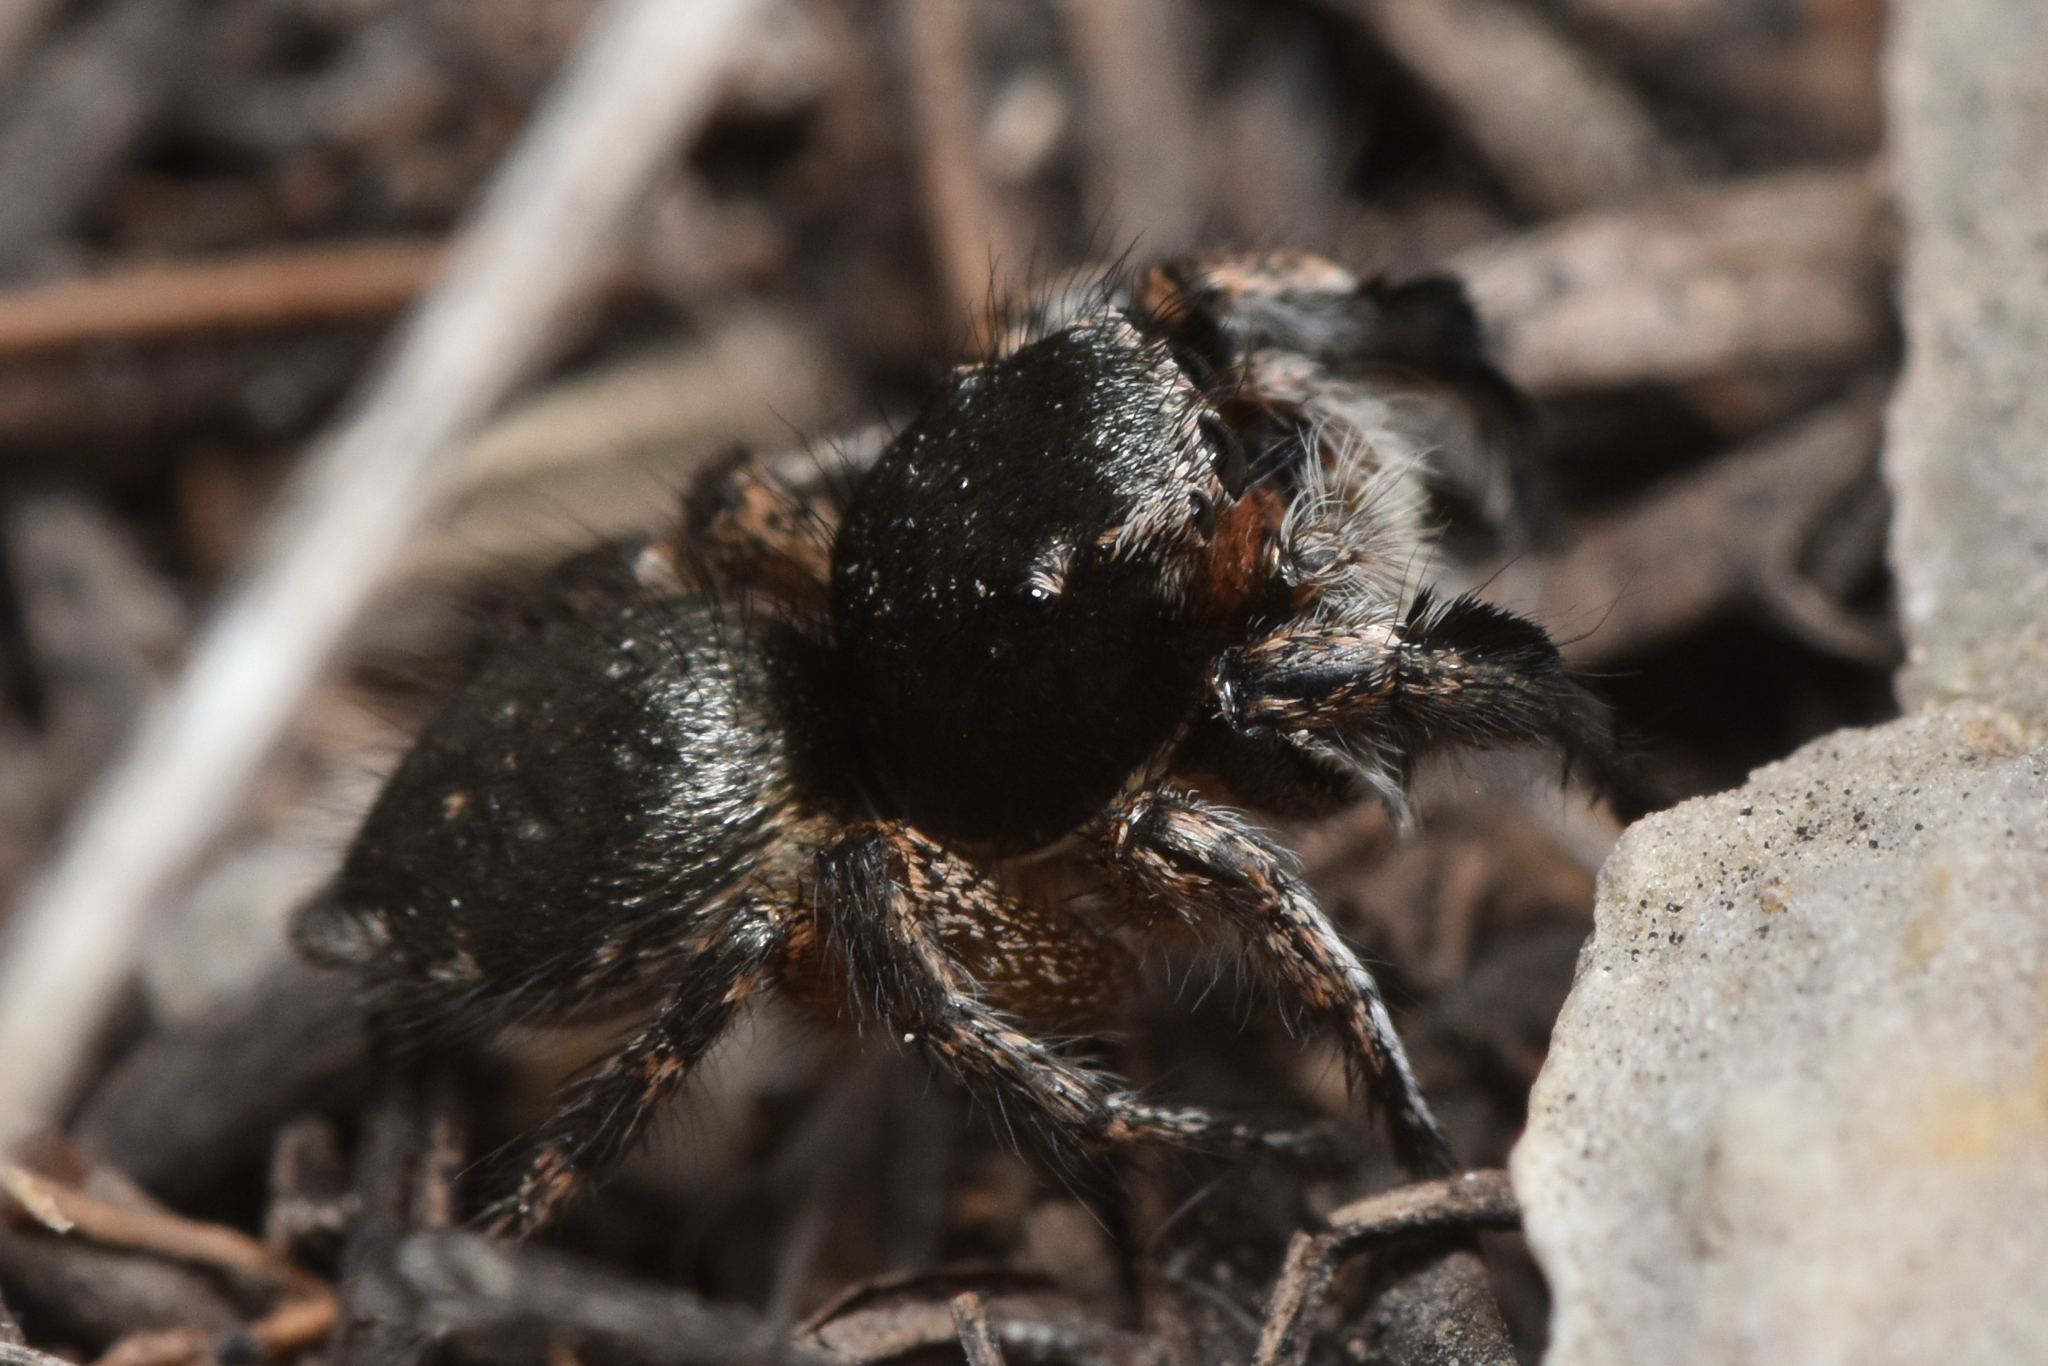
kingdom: Animalia
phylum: Arthropoda
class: Arachnida
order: Araneae
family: Salticidae
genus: Habronattus
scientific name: Habronattus hirsutus
